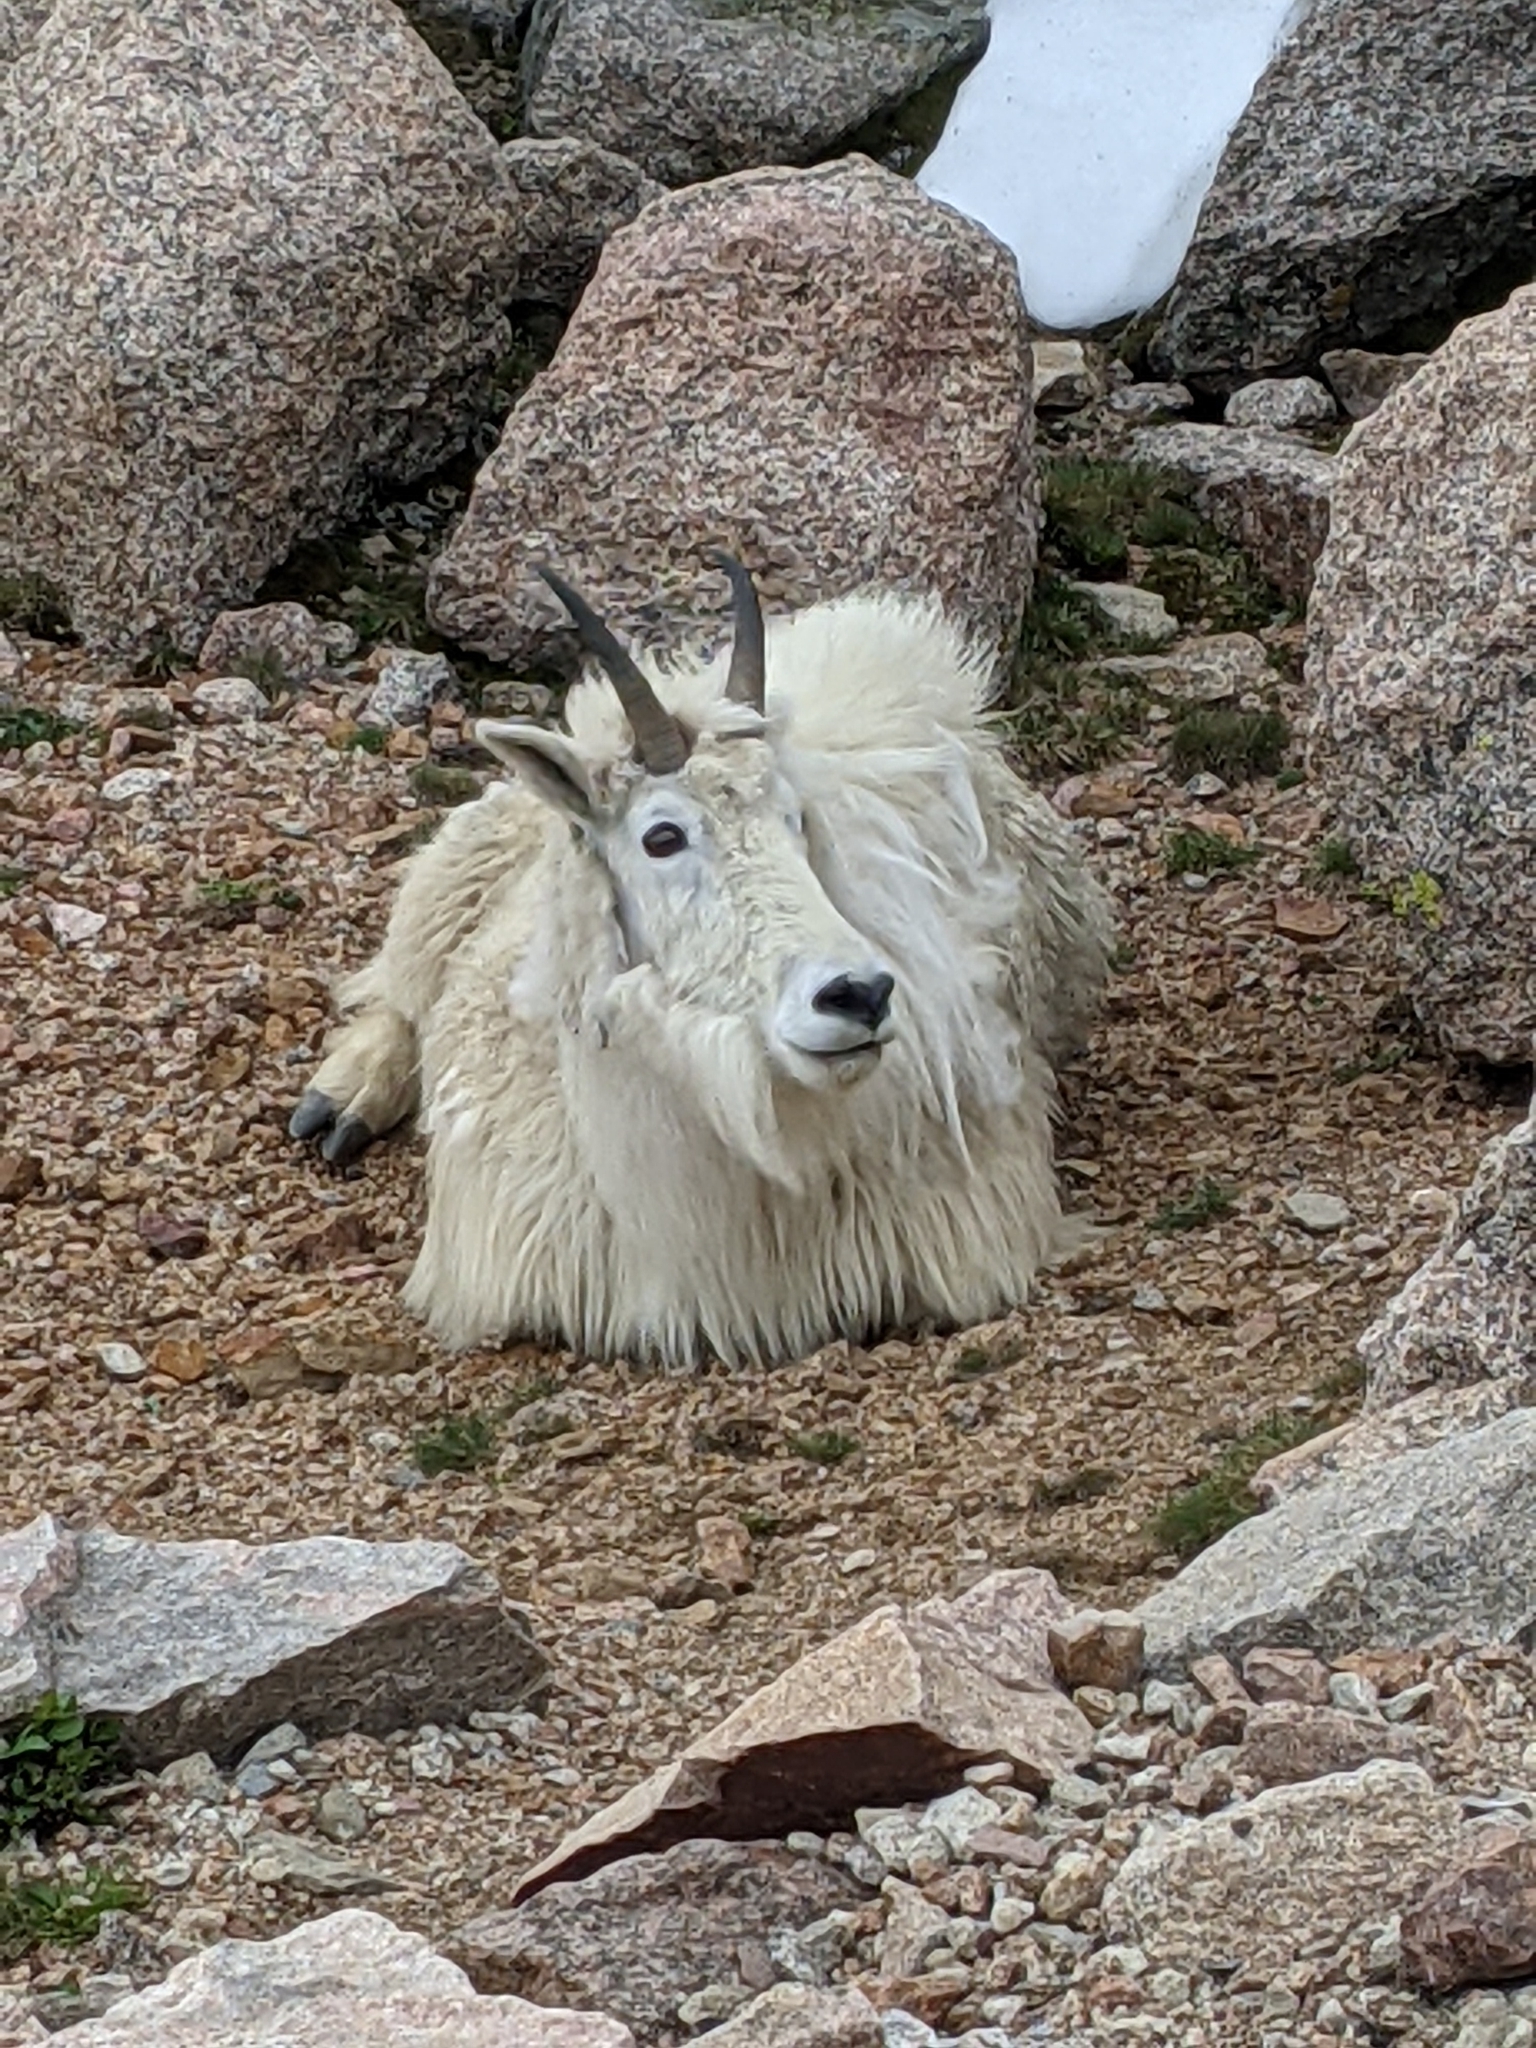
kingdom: Animalia
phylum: Chordata
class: Mammalia
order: Artiodactyla
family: Bovidae
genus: Oreamnos
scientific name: Oreamnos americanus
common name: Mountain goat
